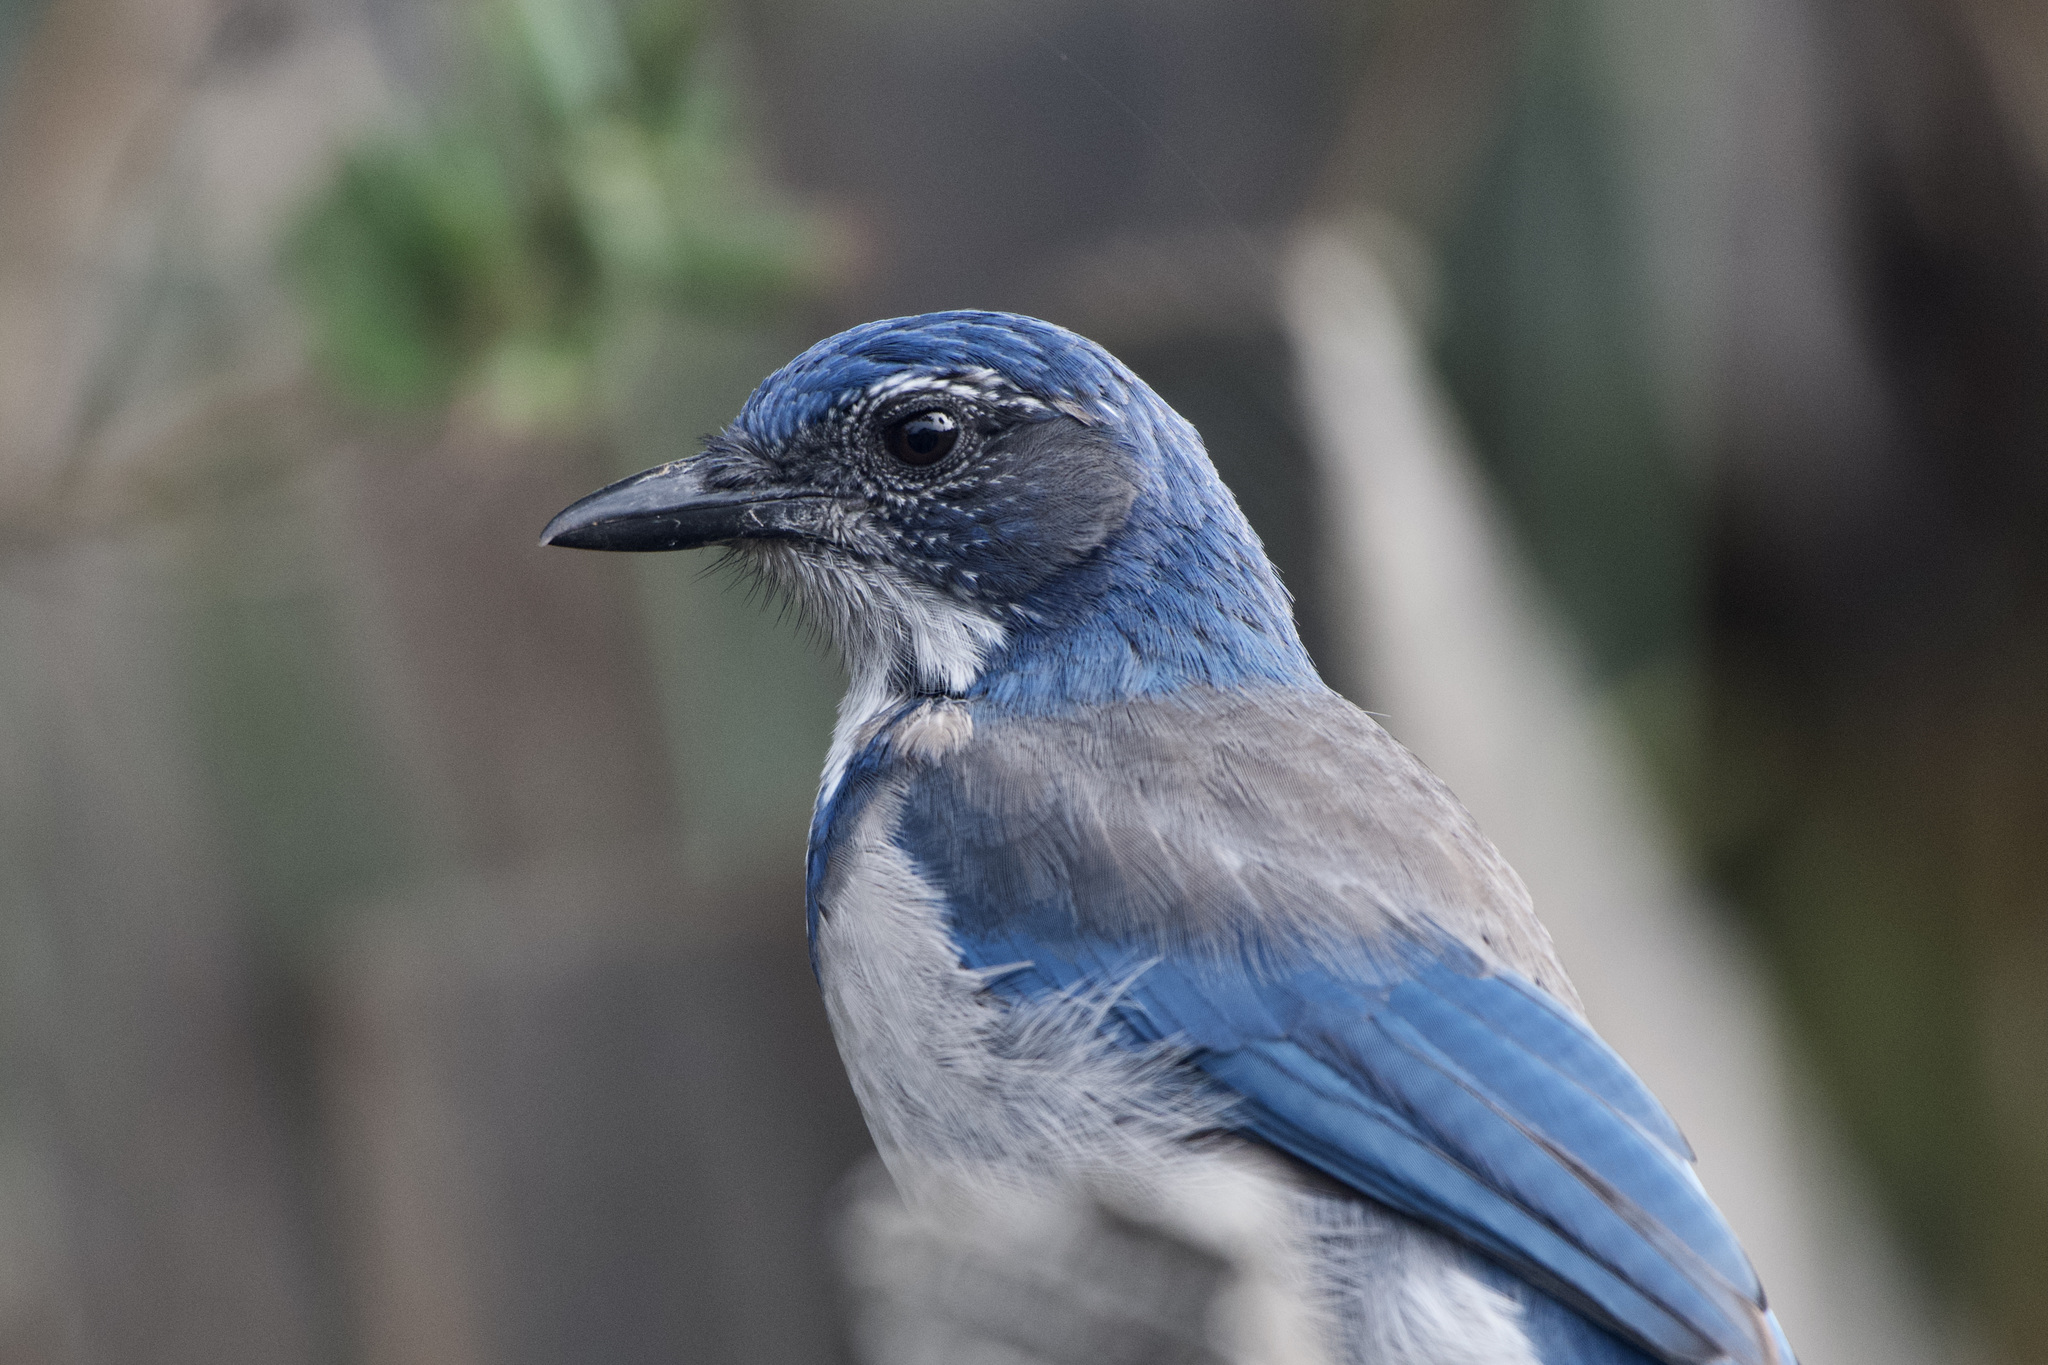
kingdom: Animalia
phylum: Chordata
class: Aves
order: Passeriformes
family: Corvidae
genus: Aphelocoma
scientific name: Aphelocoma californica
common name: California scrub-jay
